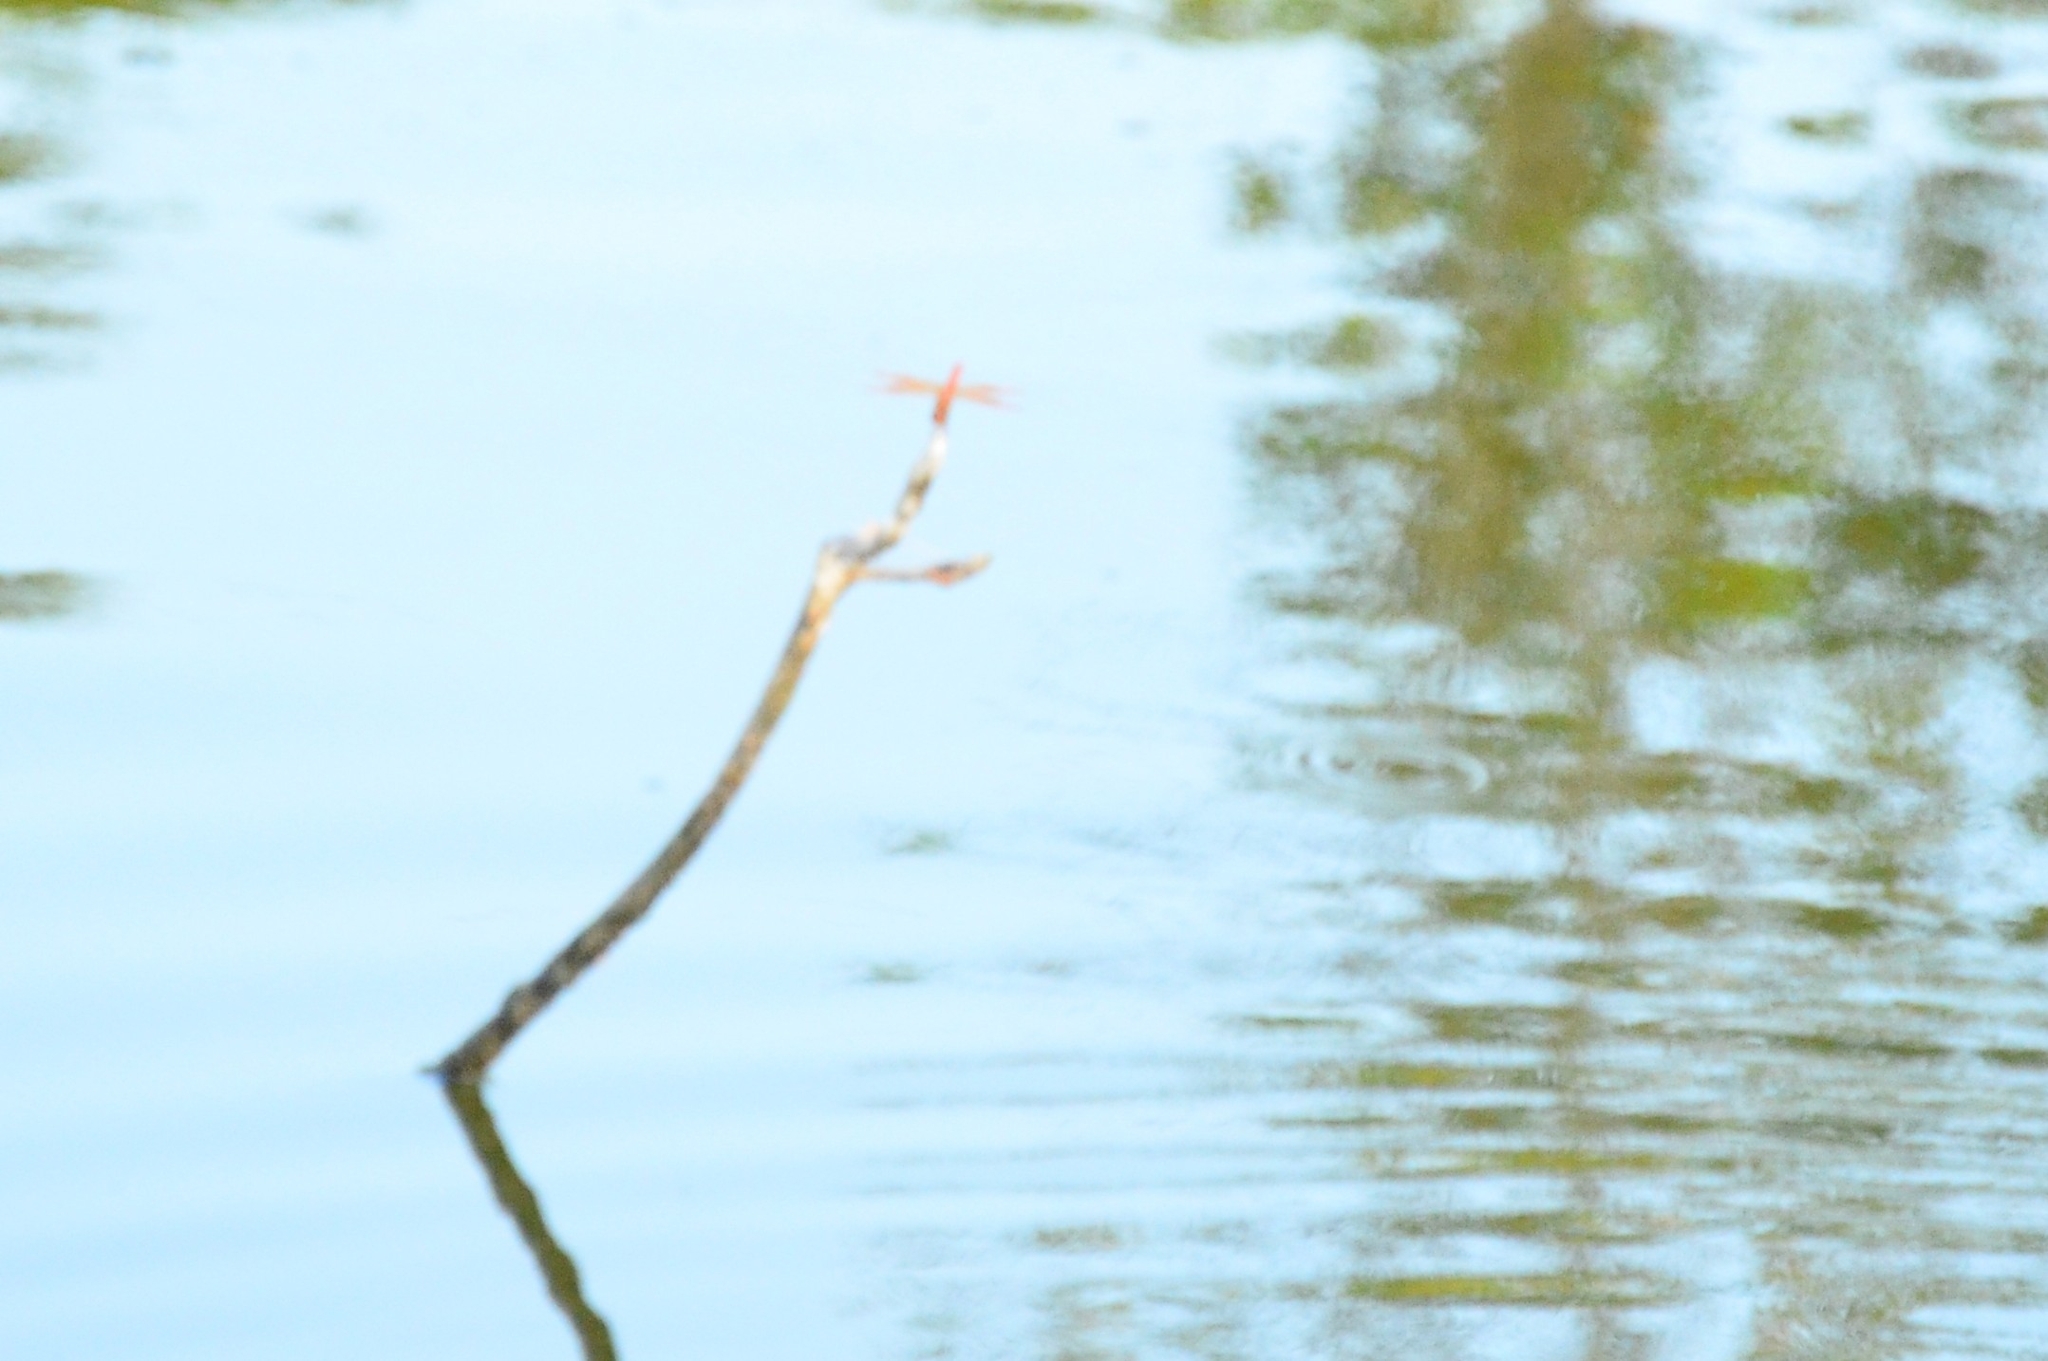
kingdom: Animalia
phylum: Arthropoda
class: Insecta
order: Odonata
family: Libellulidae
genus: Brachythemis
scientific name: Brachythemis contaminata
